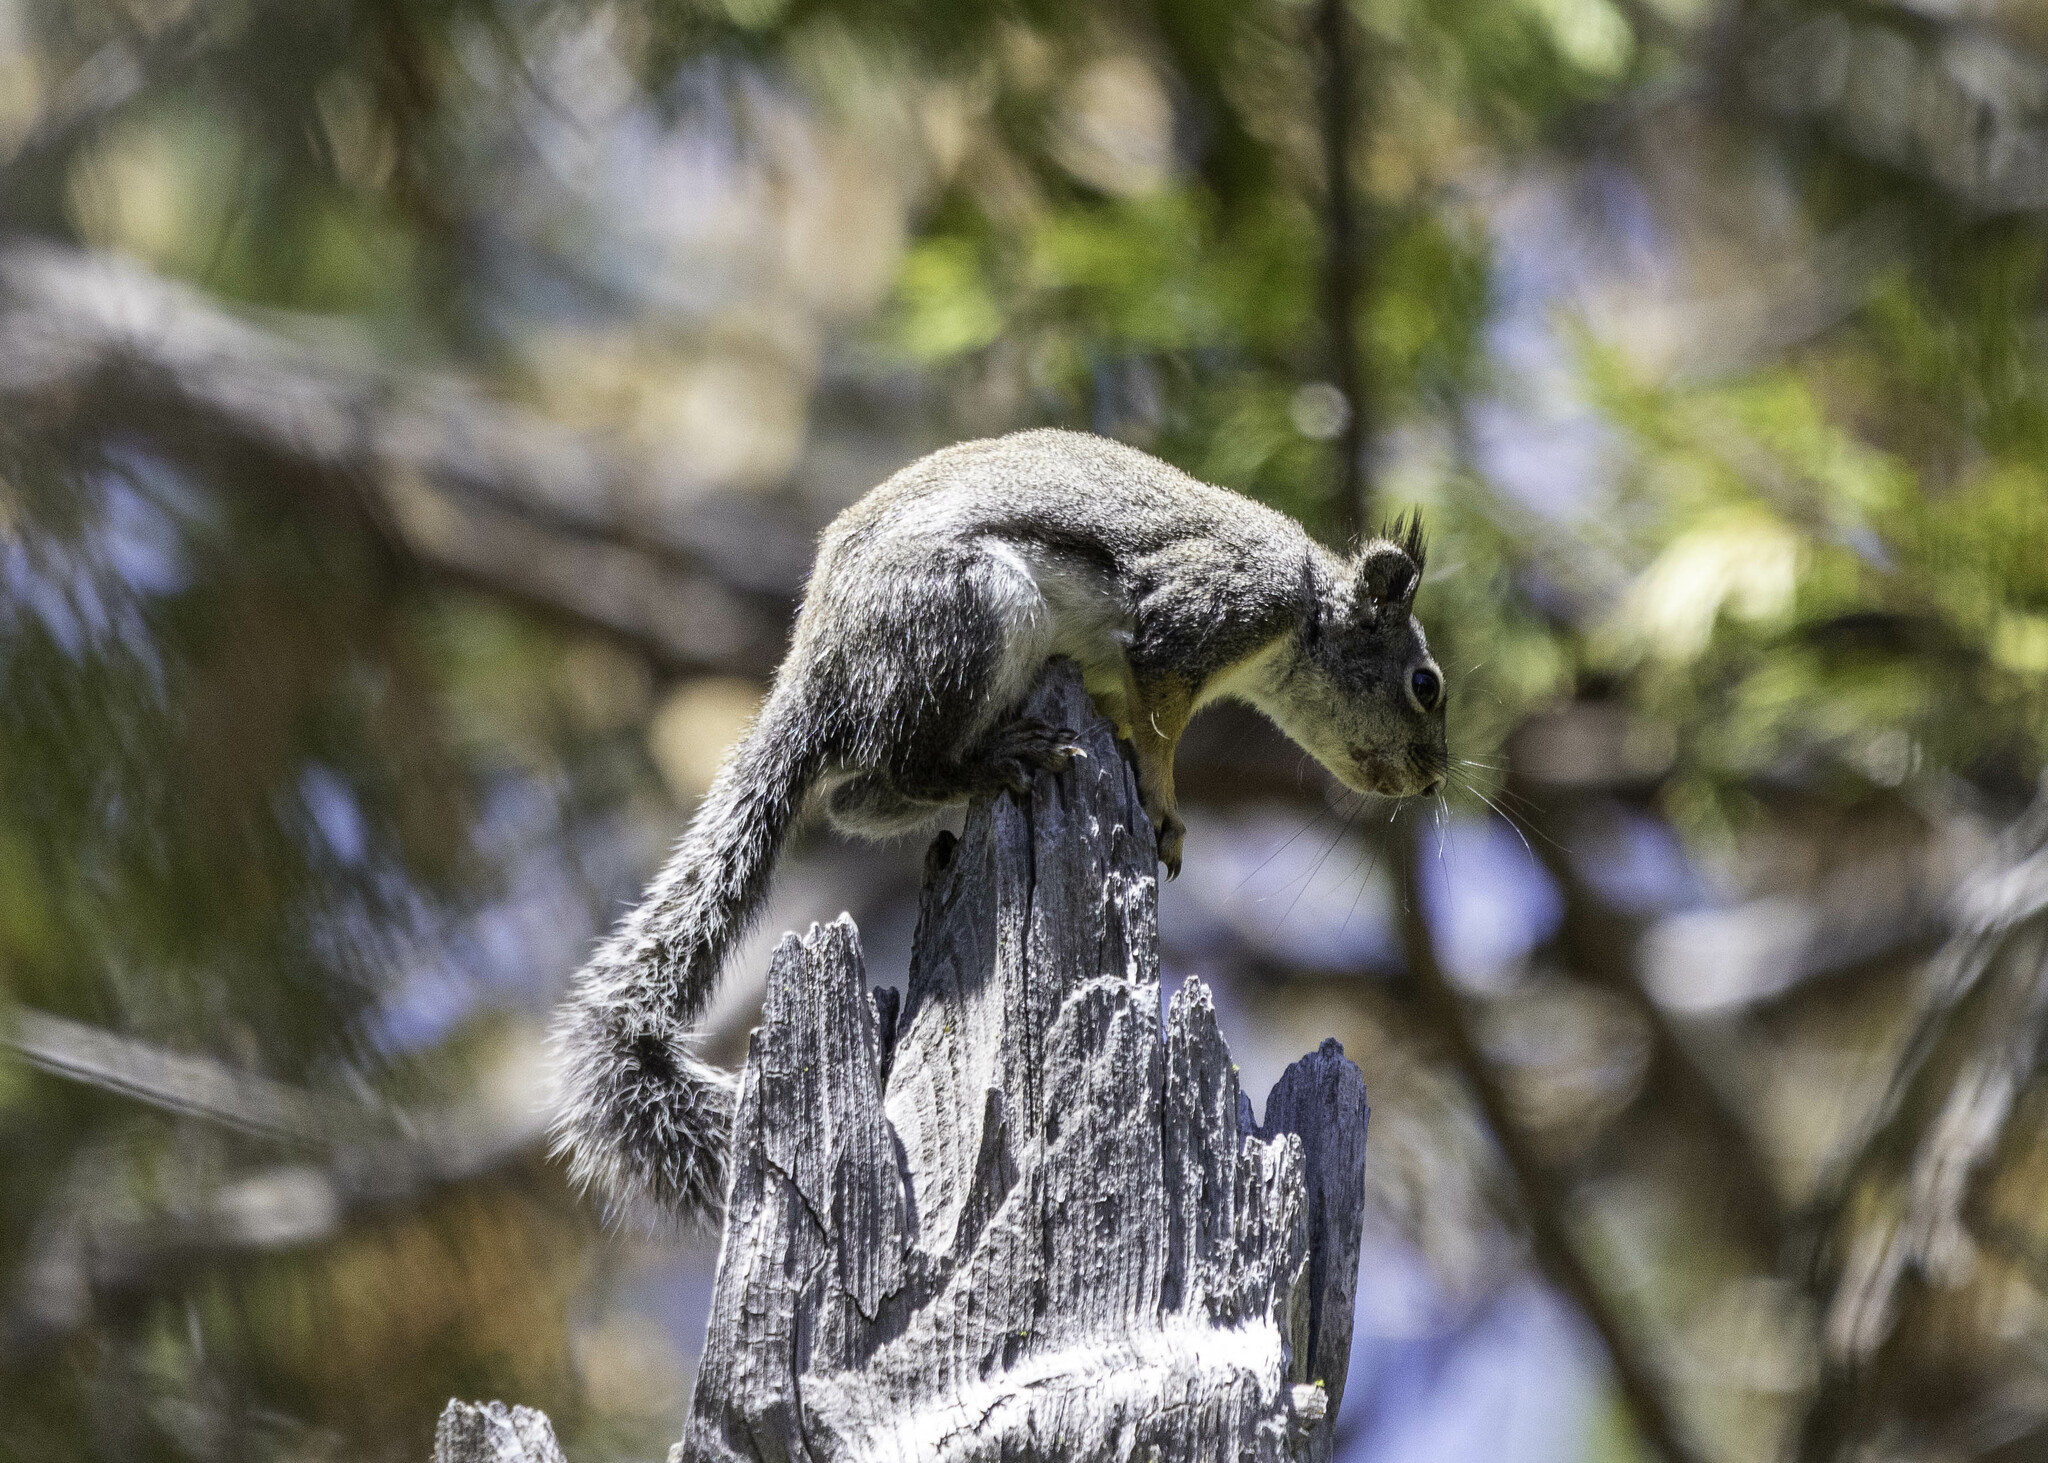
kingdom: Animalia
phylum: Chordata
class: Mammalia
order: Rodentia
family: Sciuridae
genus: Tamiasciurus
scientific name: Tamiasciurus douglasii
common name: Douglas's squirrel
